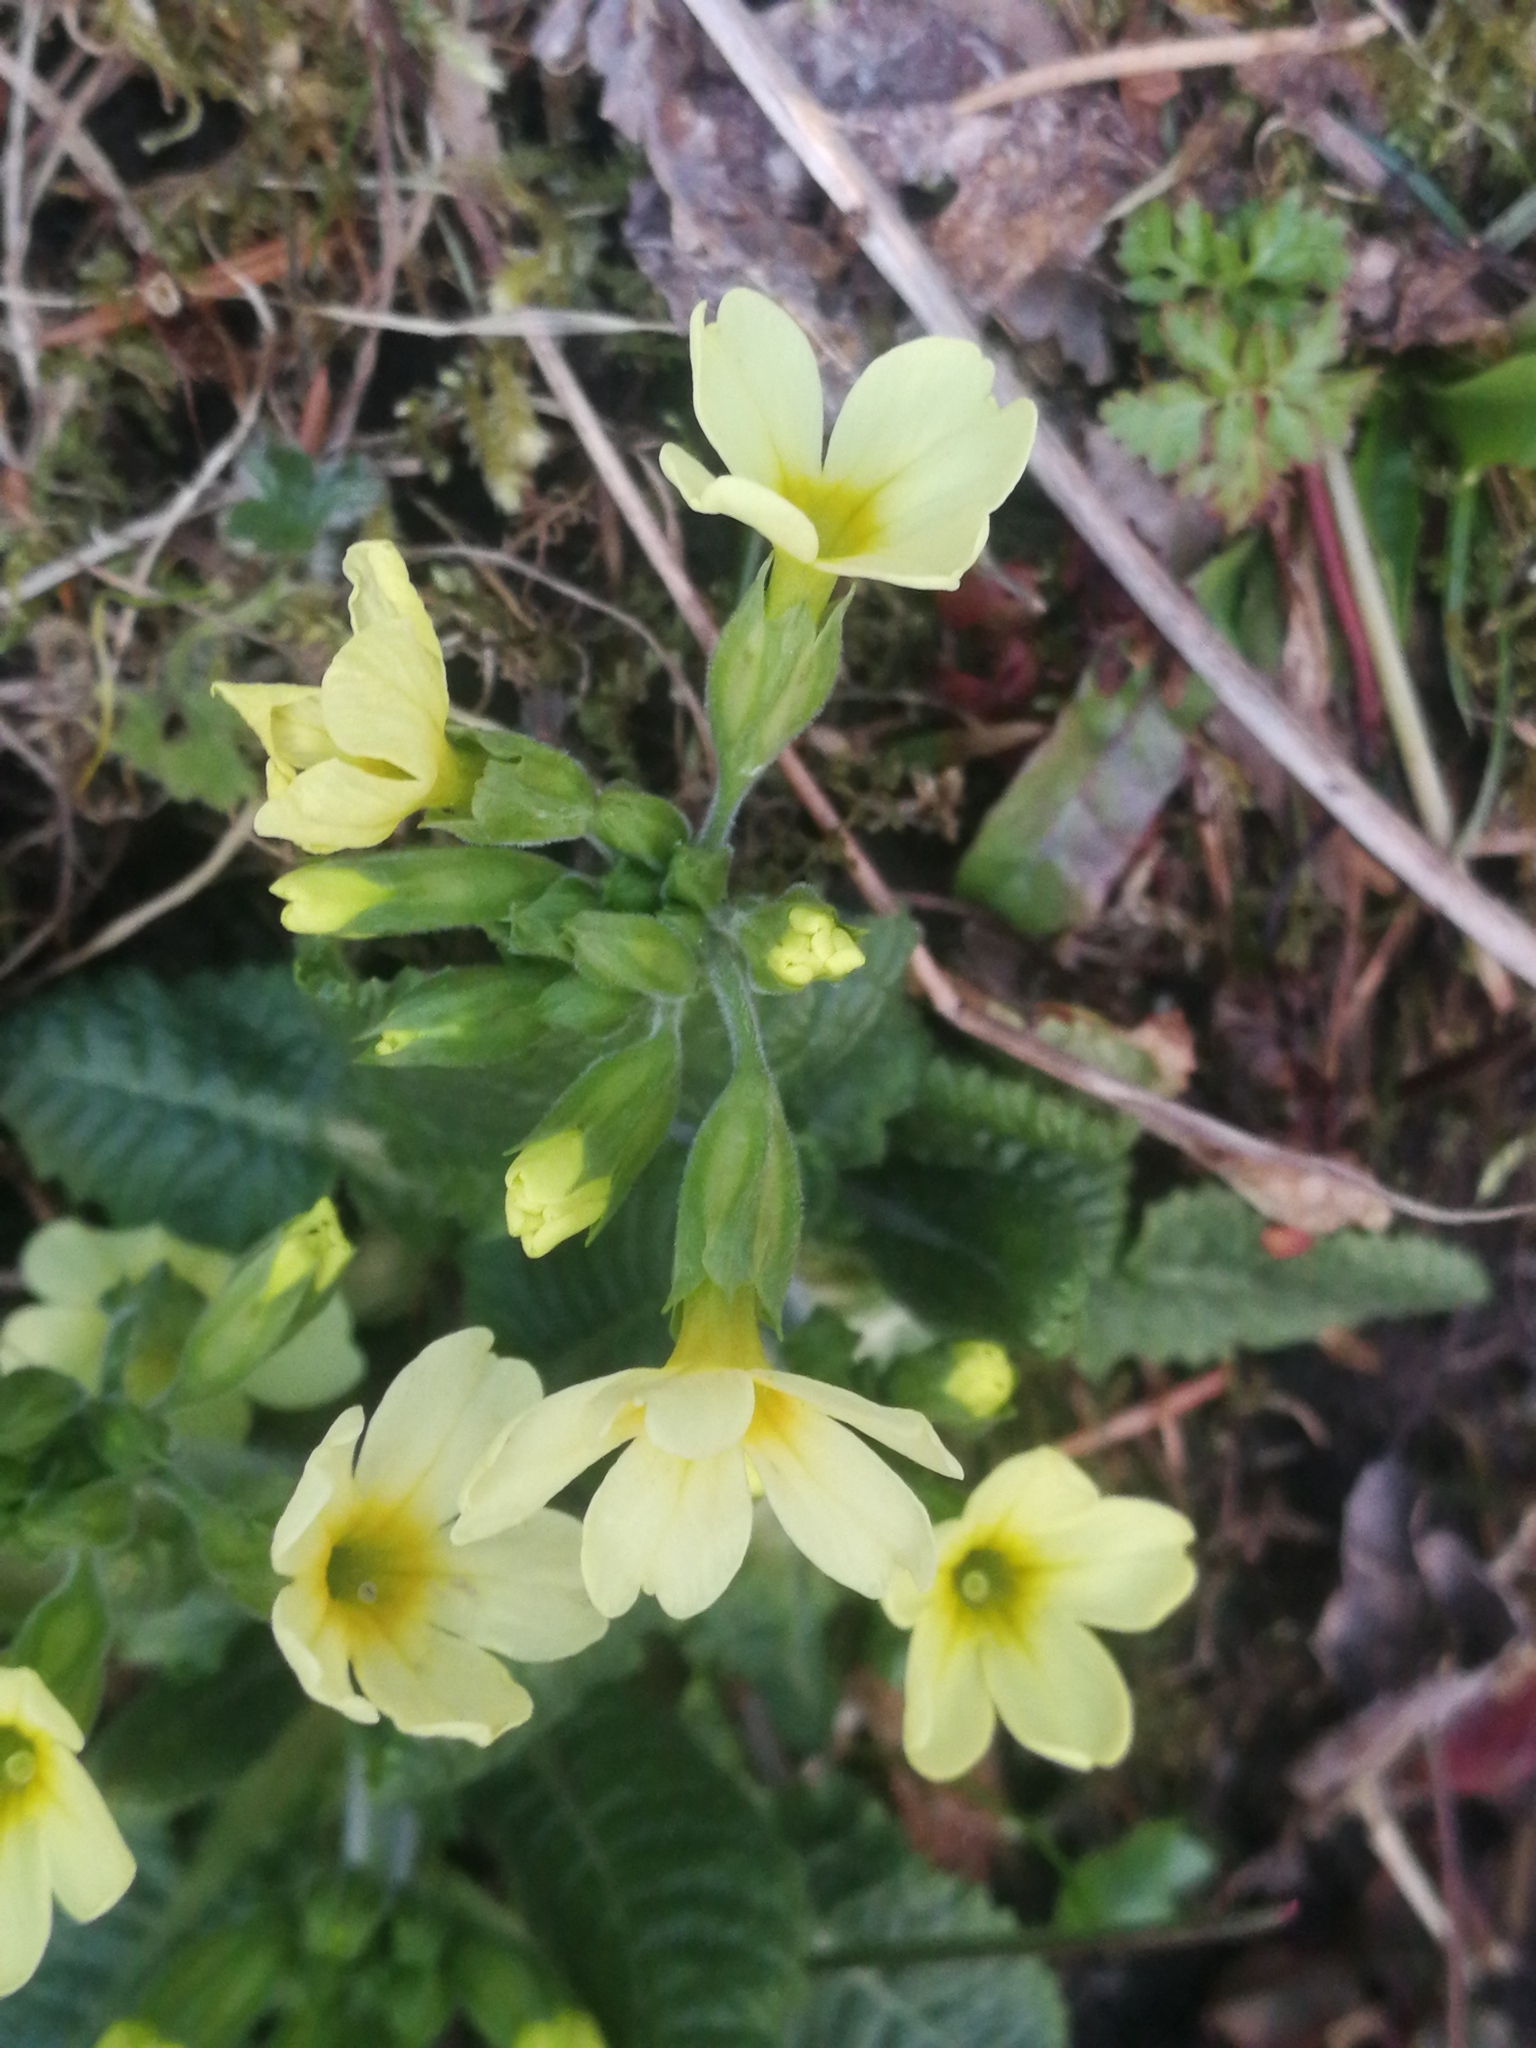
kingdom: Plantae
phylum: Tracheophyta
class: Magnoliopsida
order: Ericales
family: Primulaceae
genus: Primula
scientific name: Primula polyantha
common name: False oxlip
